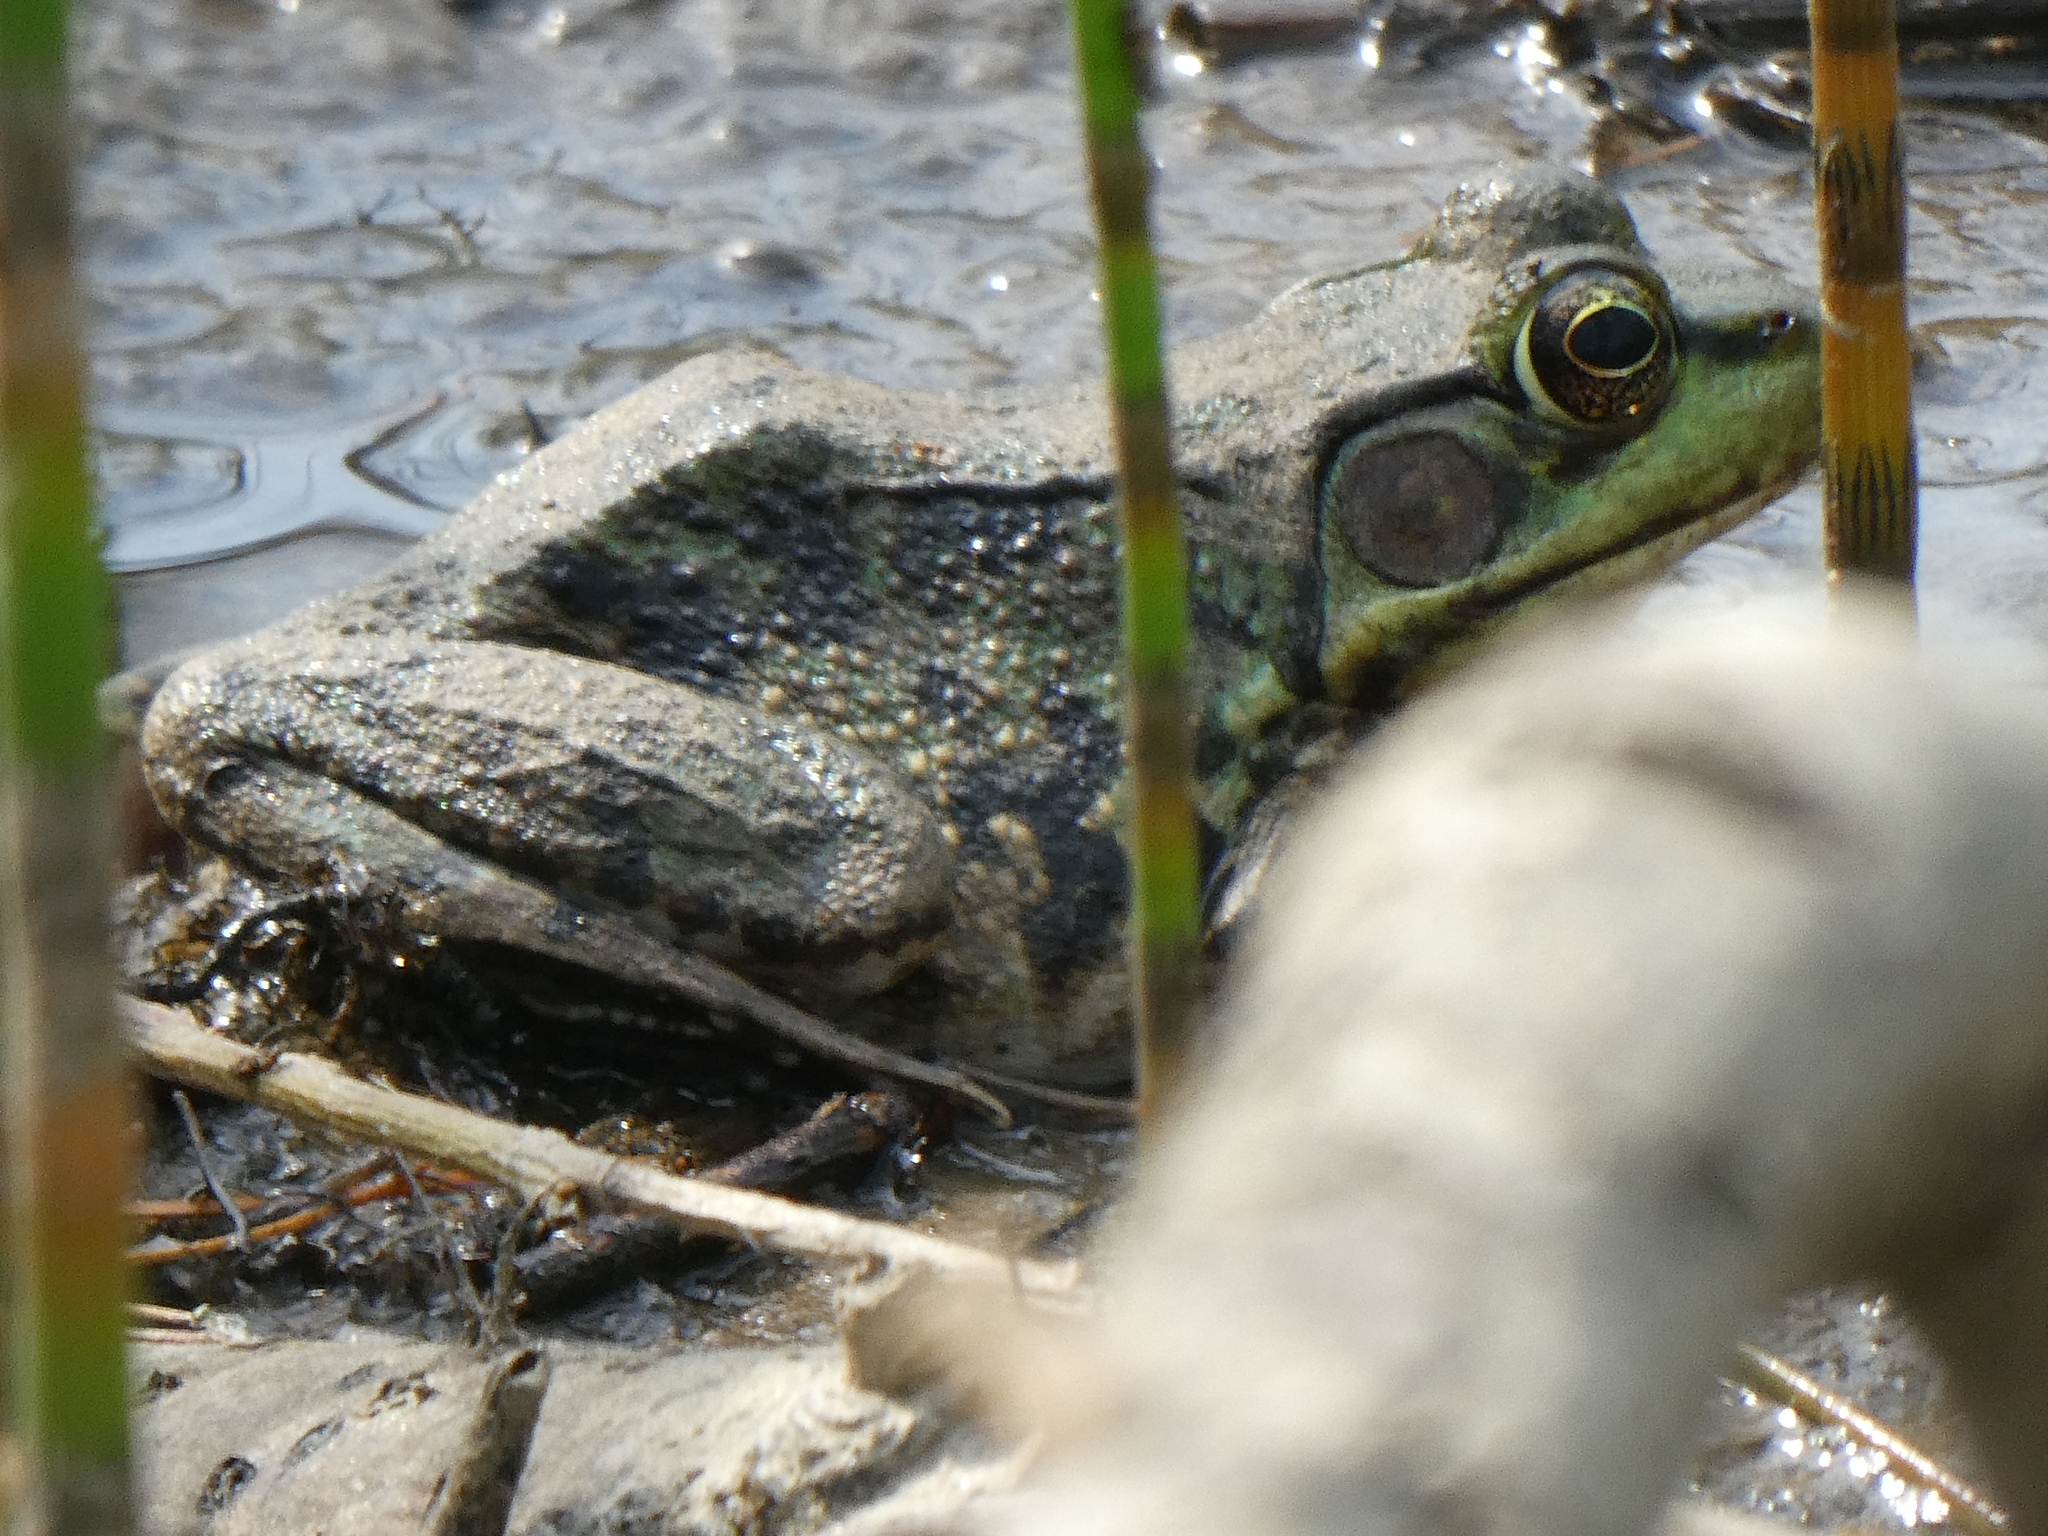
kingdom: Animalia
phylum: Chordata
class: Amphibia
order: Anura
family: Ranidae
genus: Lithobates
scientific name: Lithobates clamitans
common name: Green frog
